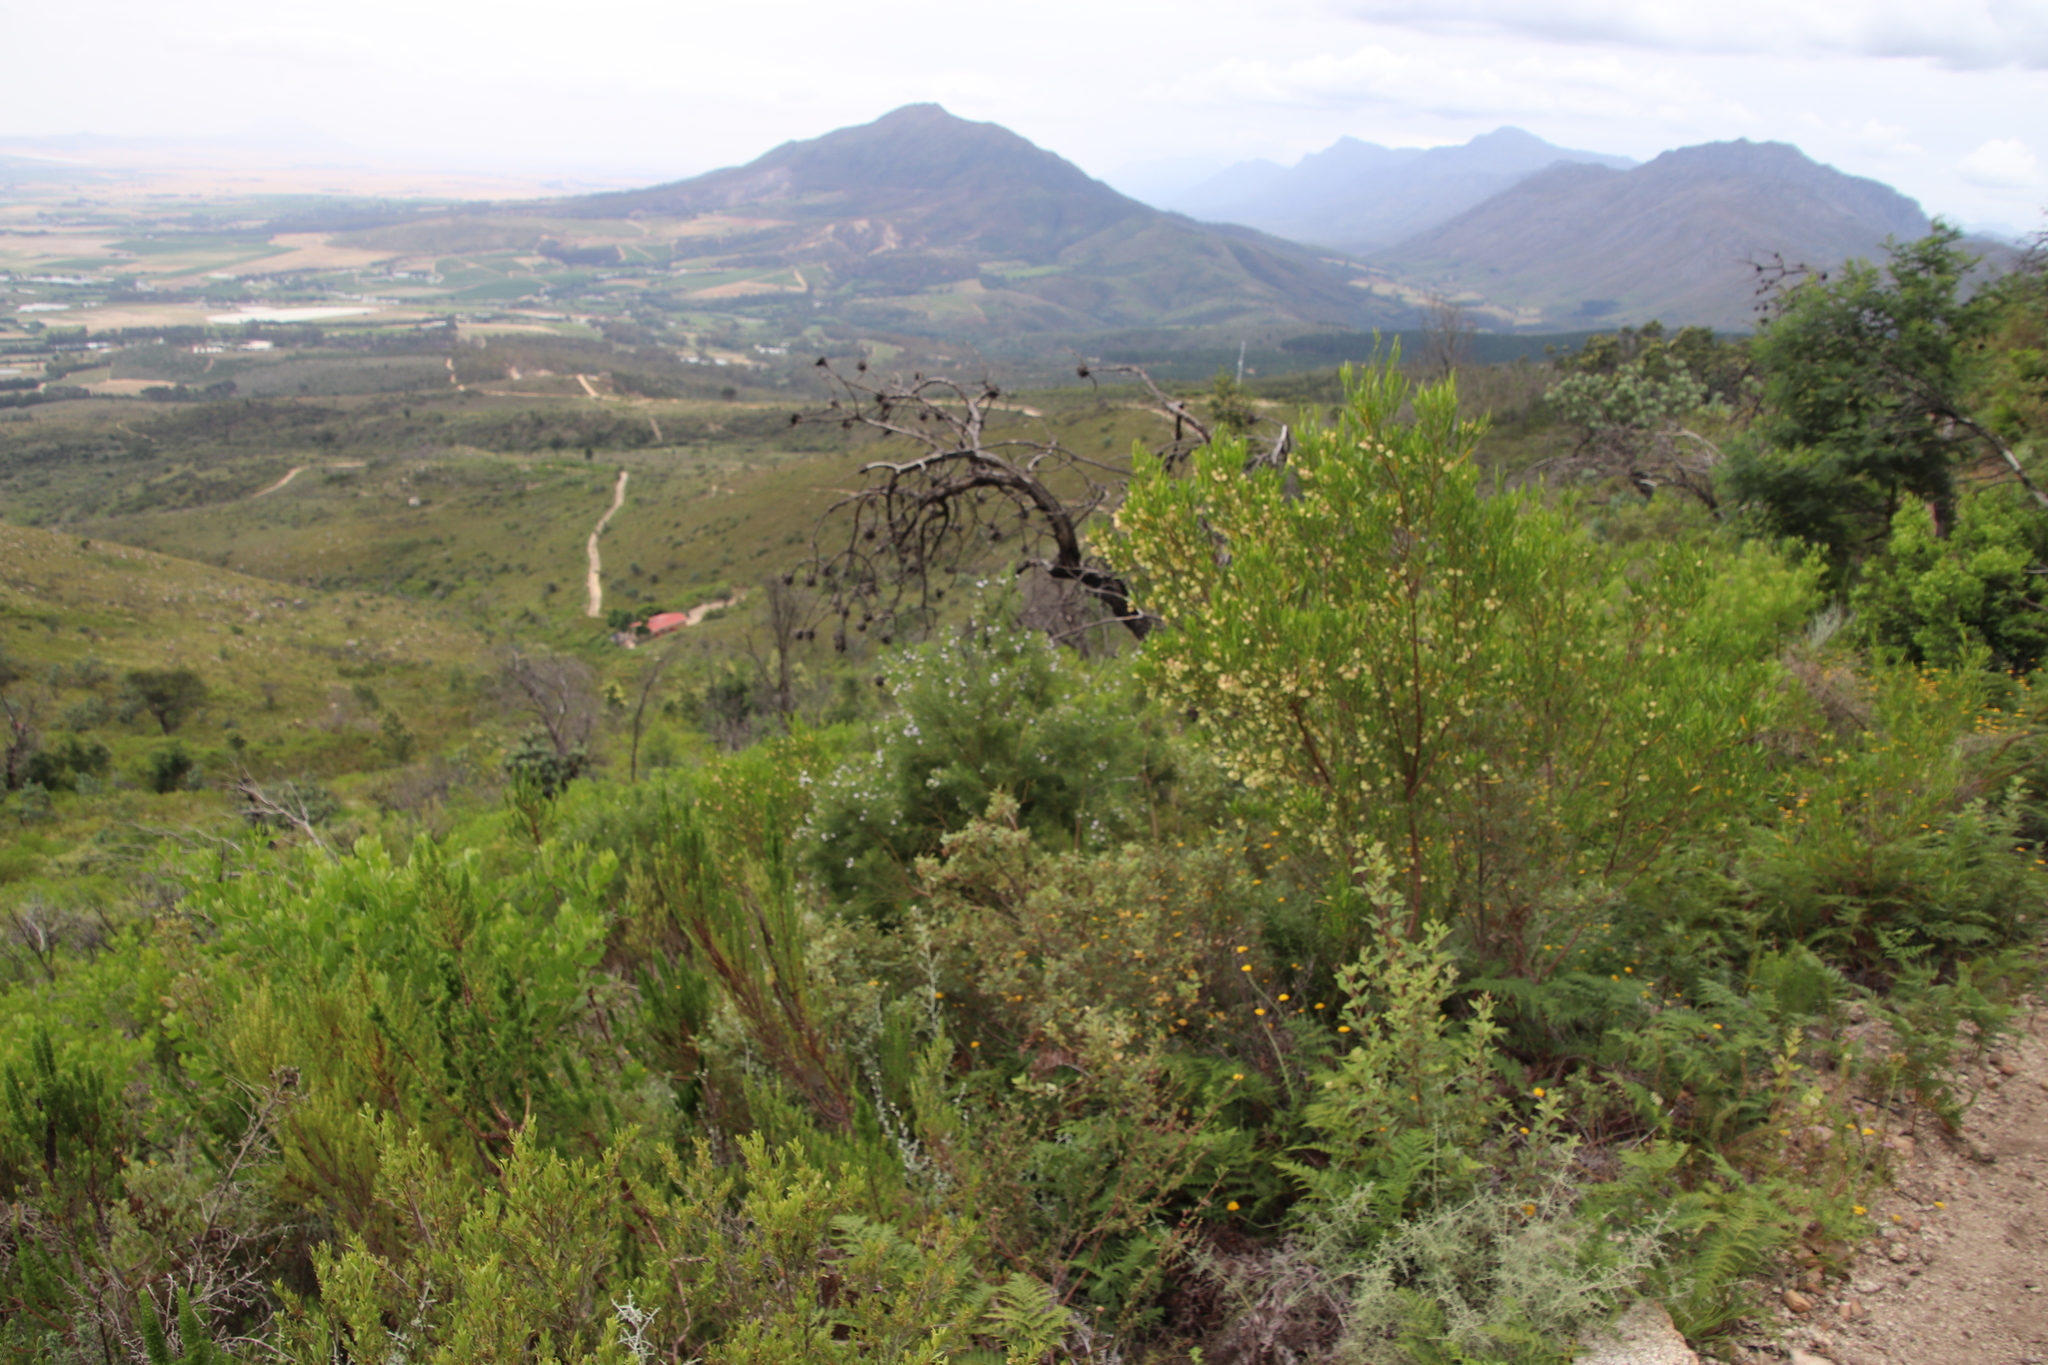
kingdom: Plantae
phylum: Tracheophyta
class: Magnoliopsida
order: Sapindales
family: Sapindaceae
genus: Dodonaea
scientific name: Dodonaea viscosa
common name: Hopbush
